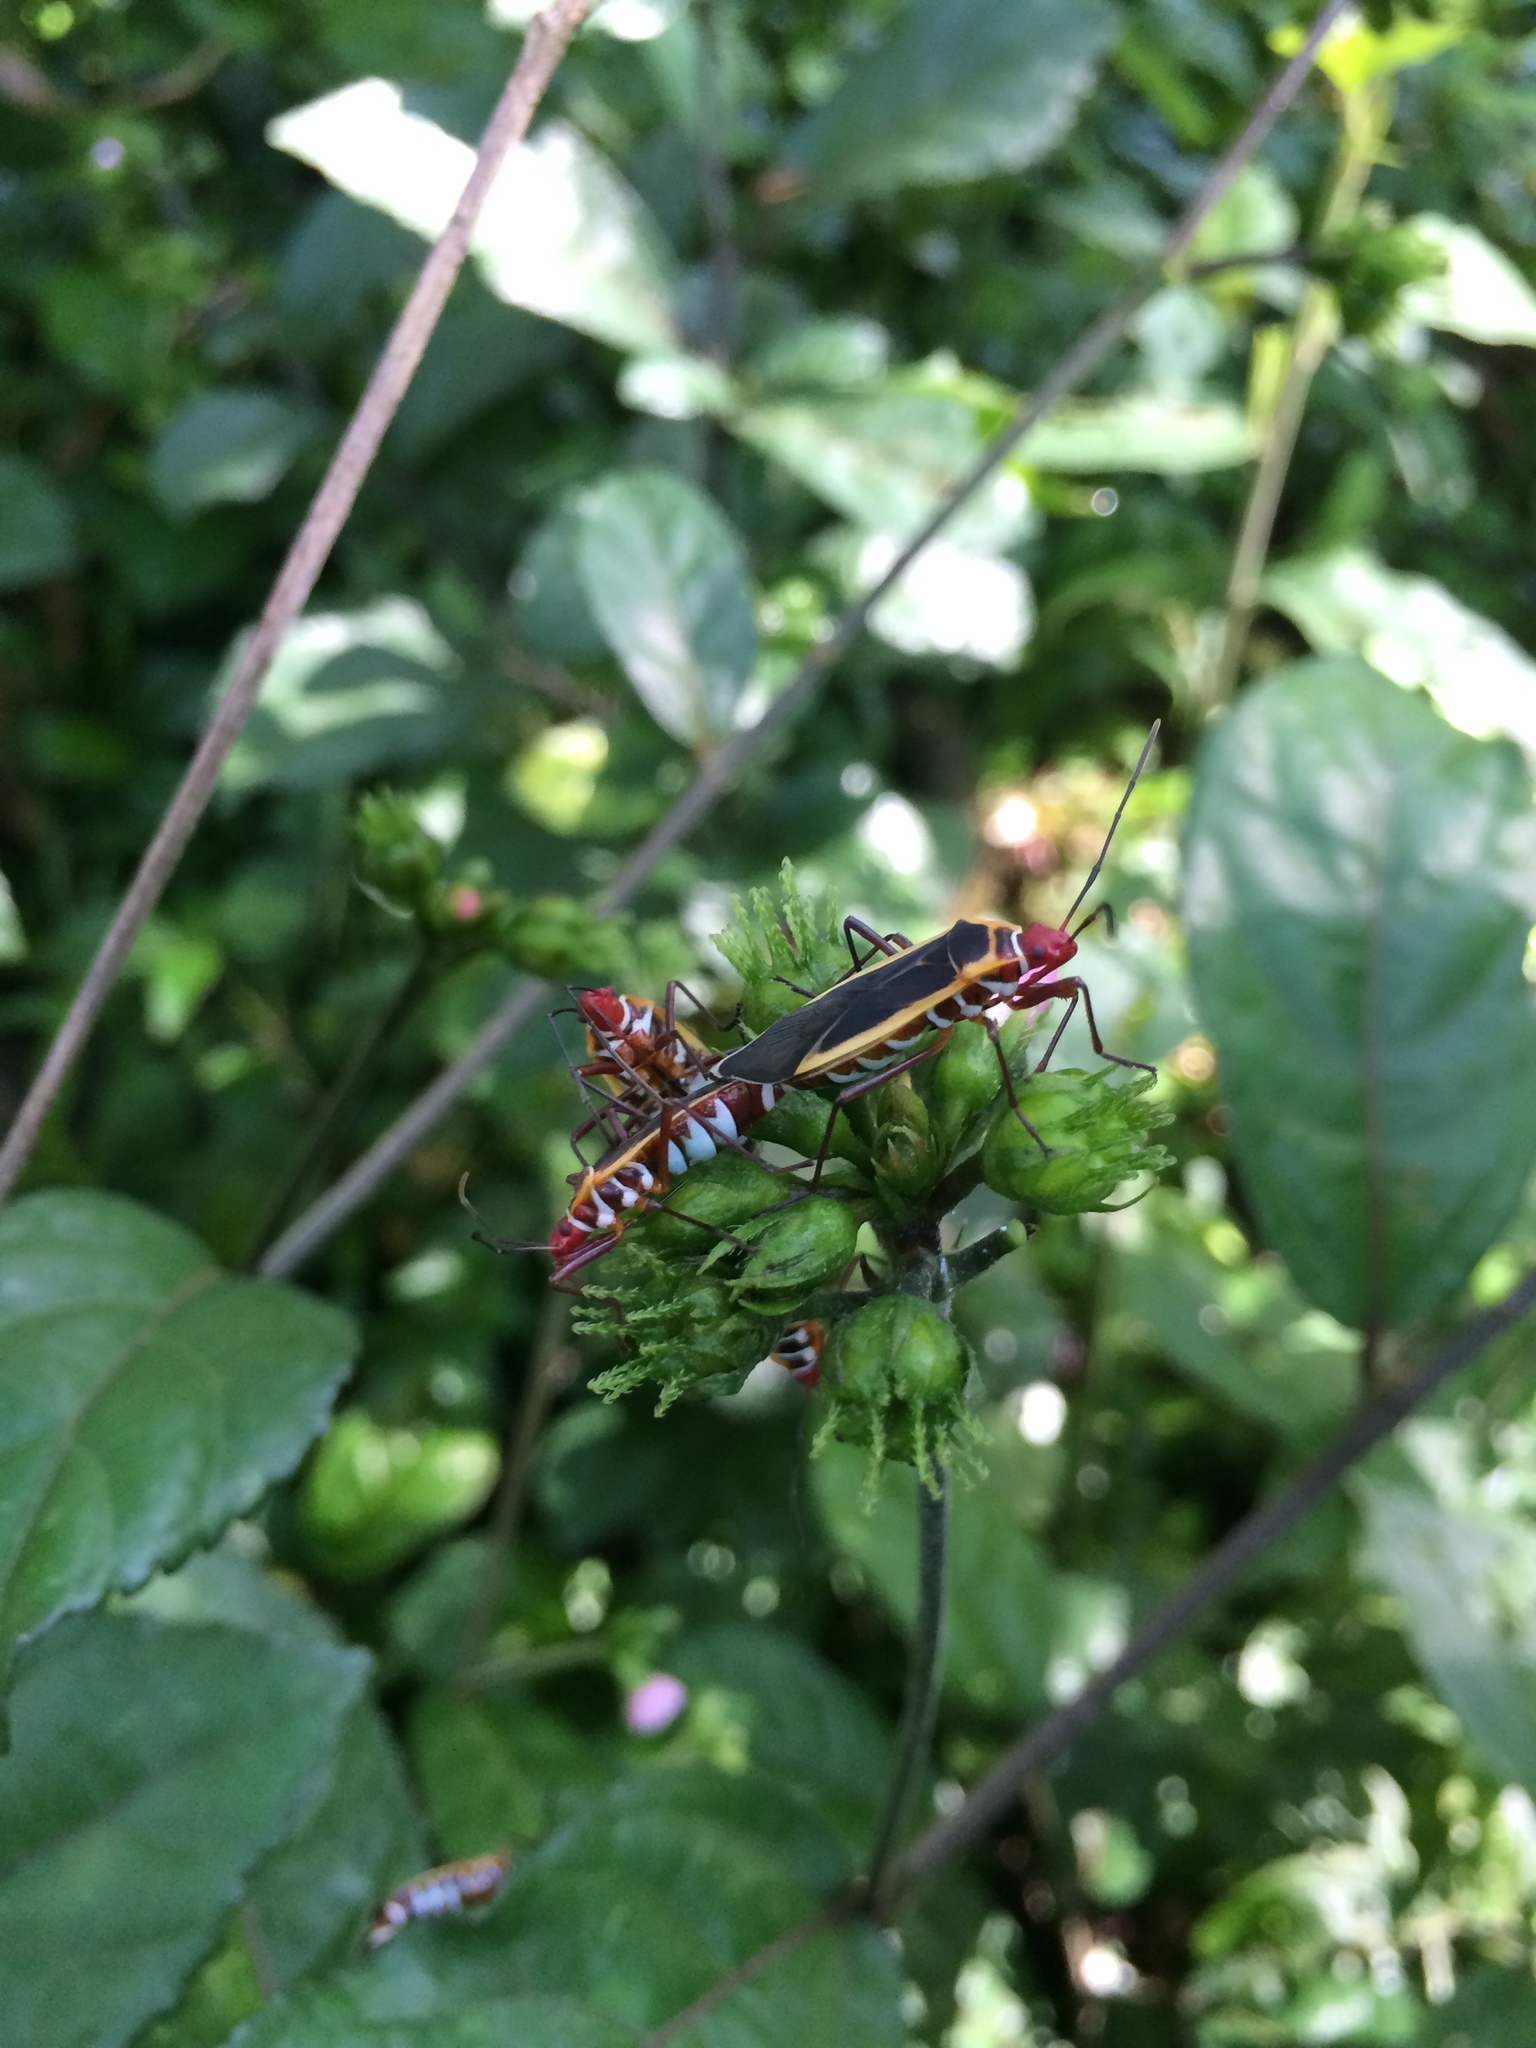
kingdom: Animalia
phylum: Arthropoda
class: Insecta
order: Hemiptera
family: Pyrrhocoridae
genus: Dysdercus
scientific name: Dysdercus mimulus
